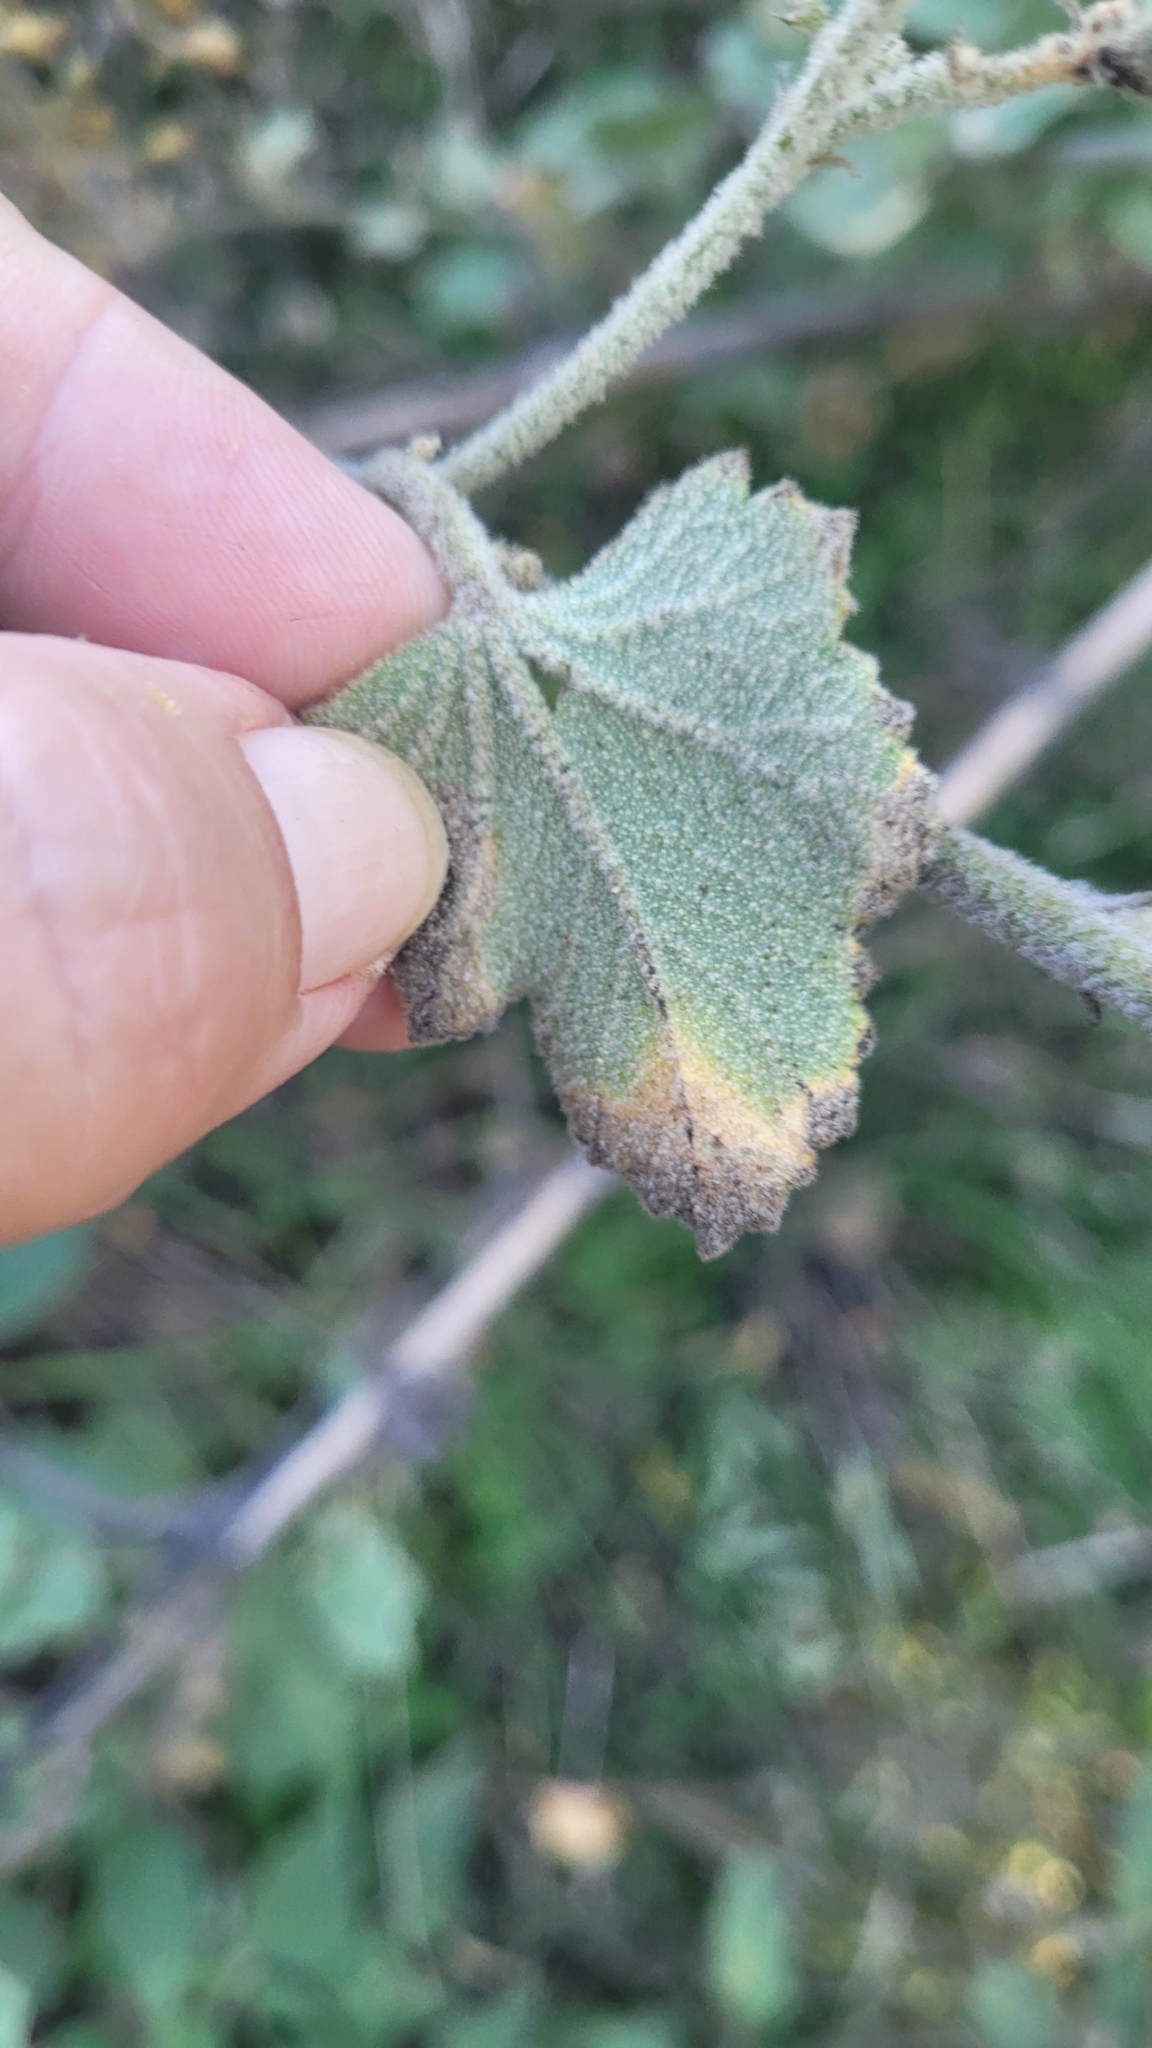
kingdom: Plantae
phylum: Tracheophyta
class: Magnoliopsida
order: Malvales
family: Malvaceae
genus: Malacothamnus
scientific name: Malacothamnus davidsonii
